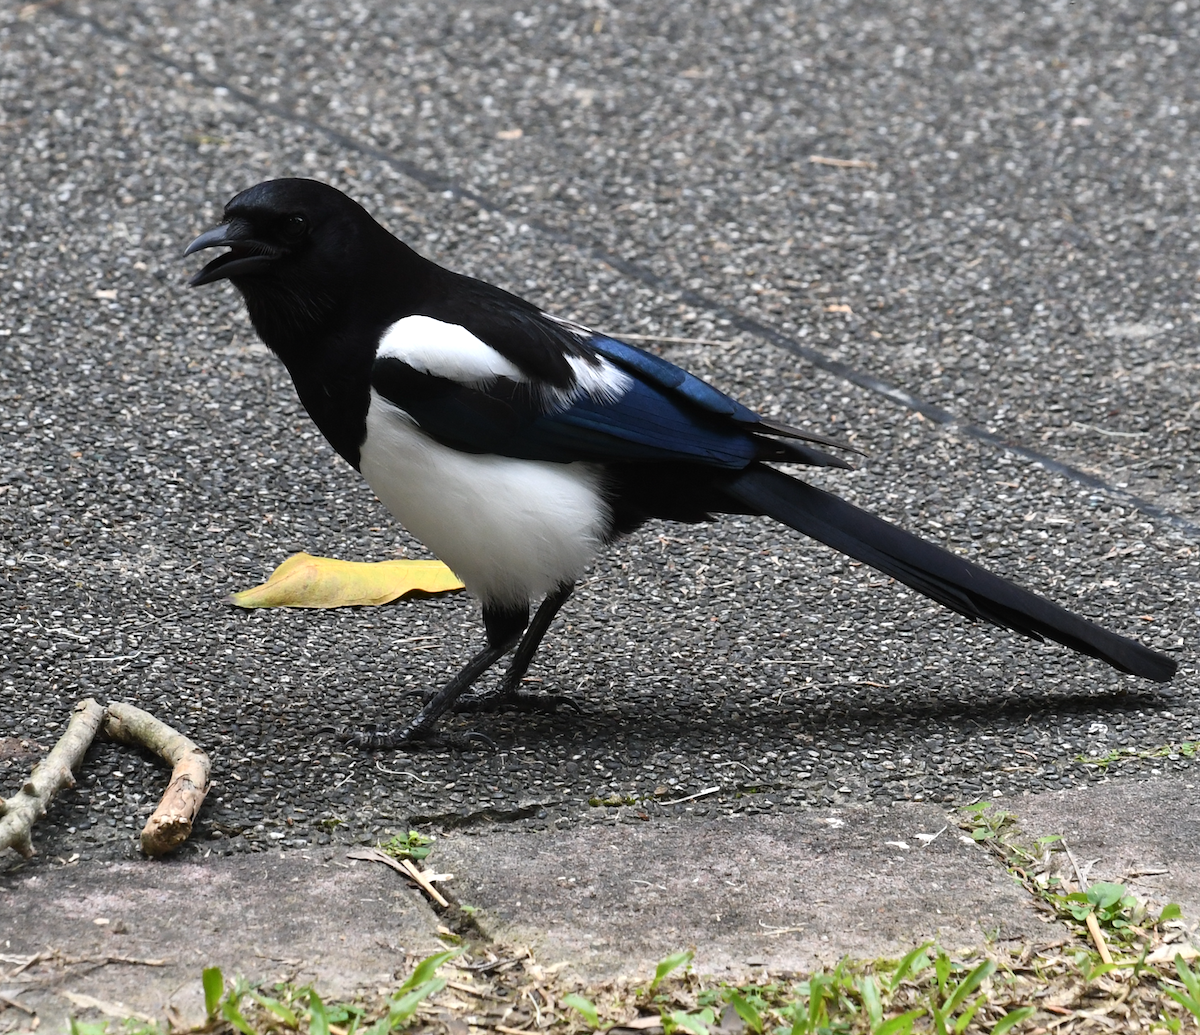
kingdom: Animalia
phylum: Chordata
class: Aves
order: Passeriformes
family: Corvidae
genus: Pica
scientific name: Pica serica
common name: Oriental magpie
